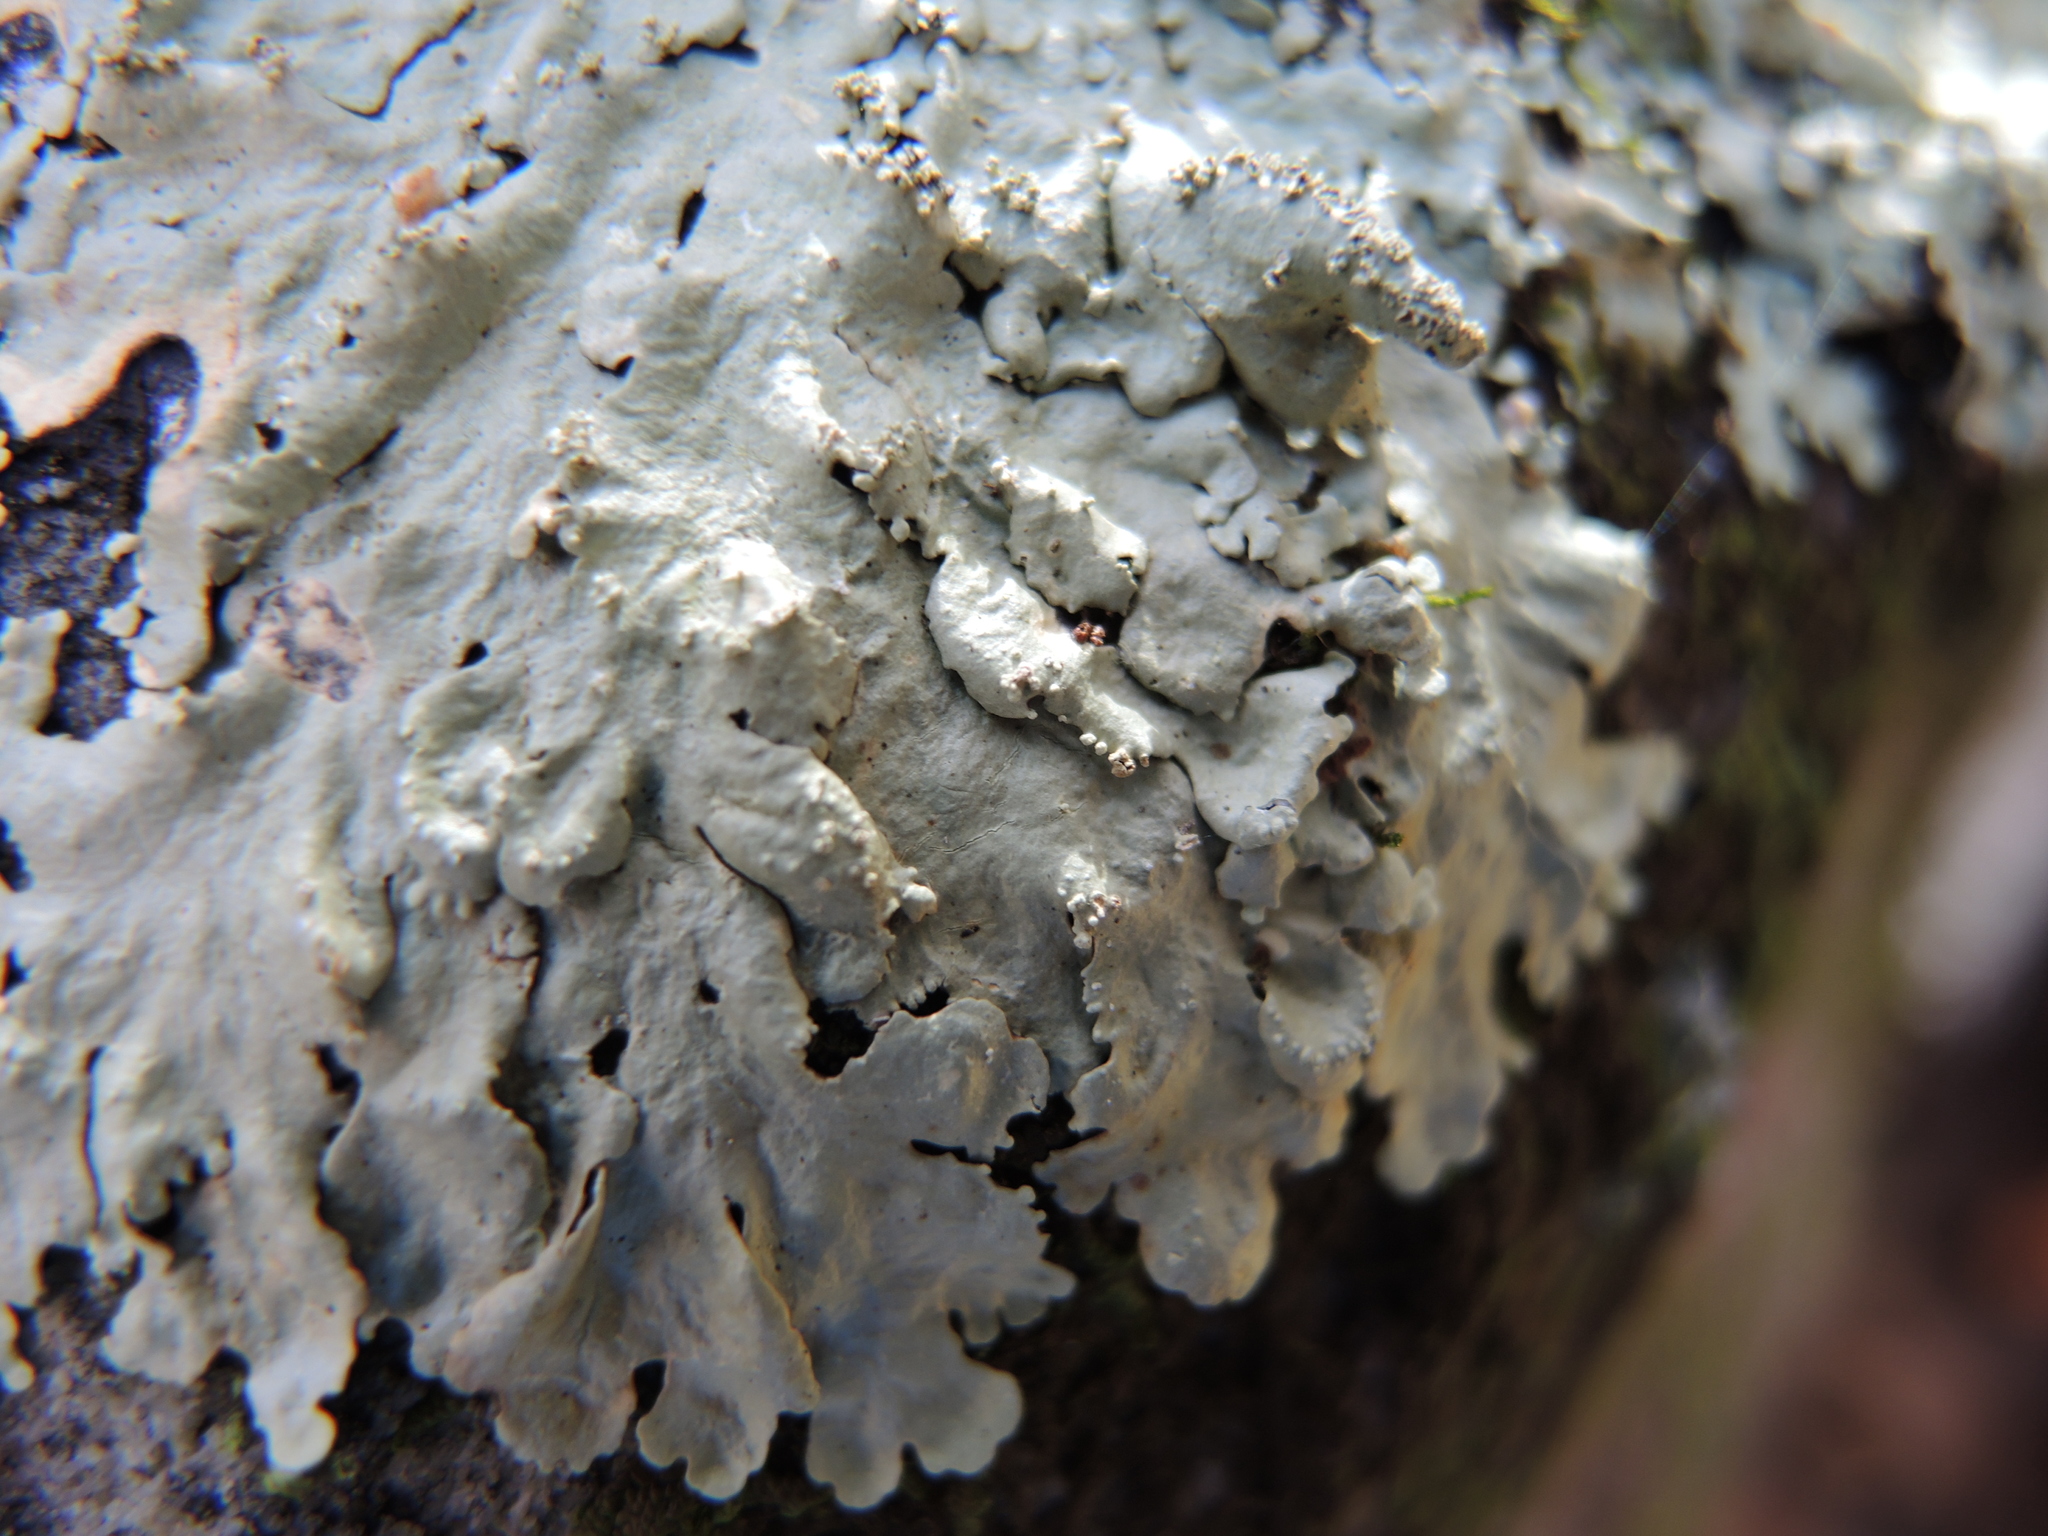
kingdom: Fungi
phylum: Ascomycota
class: Lecanoromycetes
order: Lecanorales
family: Parmeliaceae
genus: Flavoparmelia
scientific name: Flavoparmelia baltimorensis
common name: Rock greenshield
